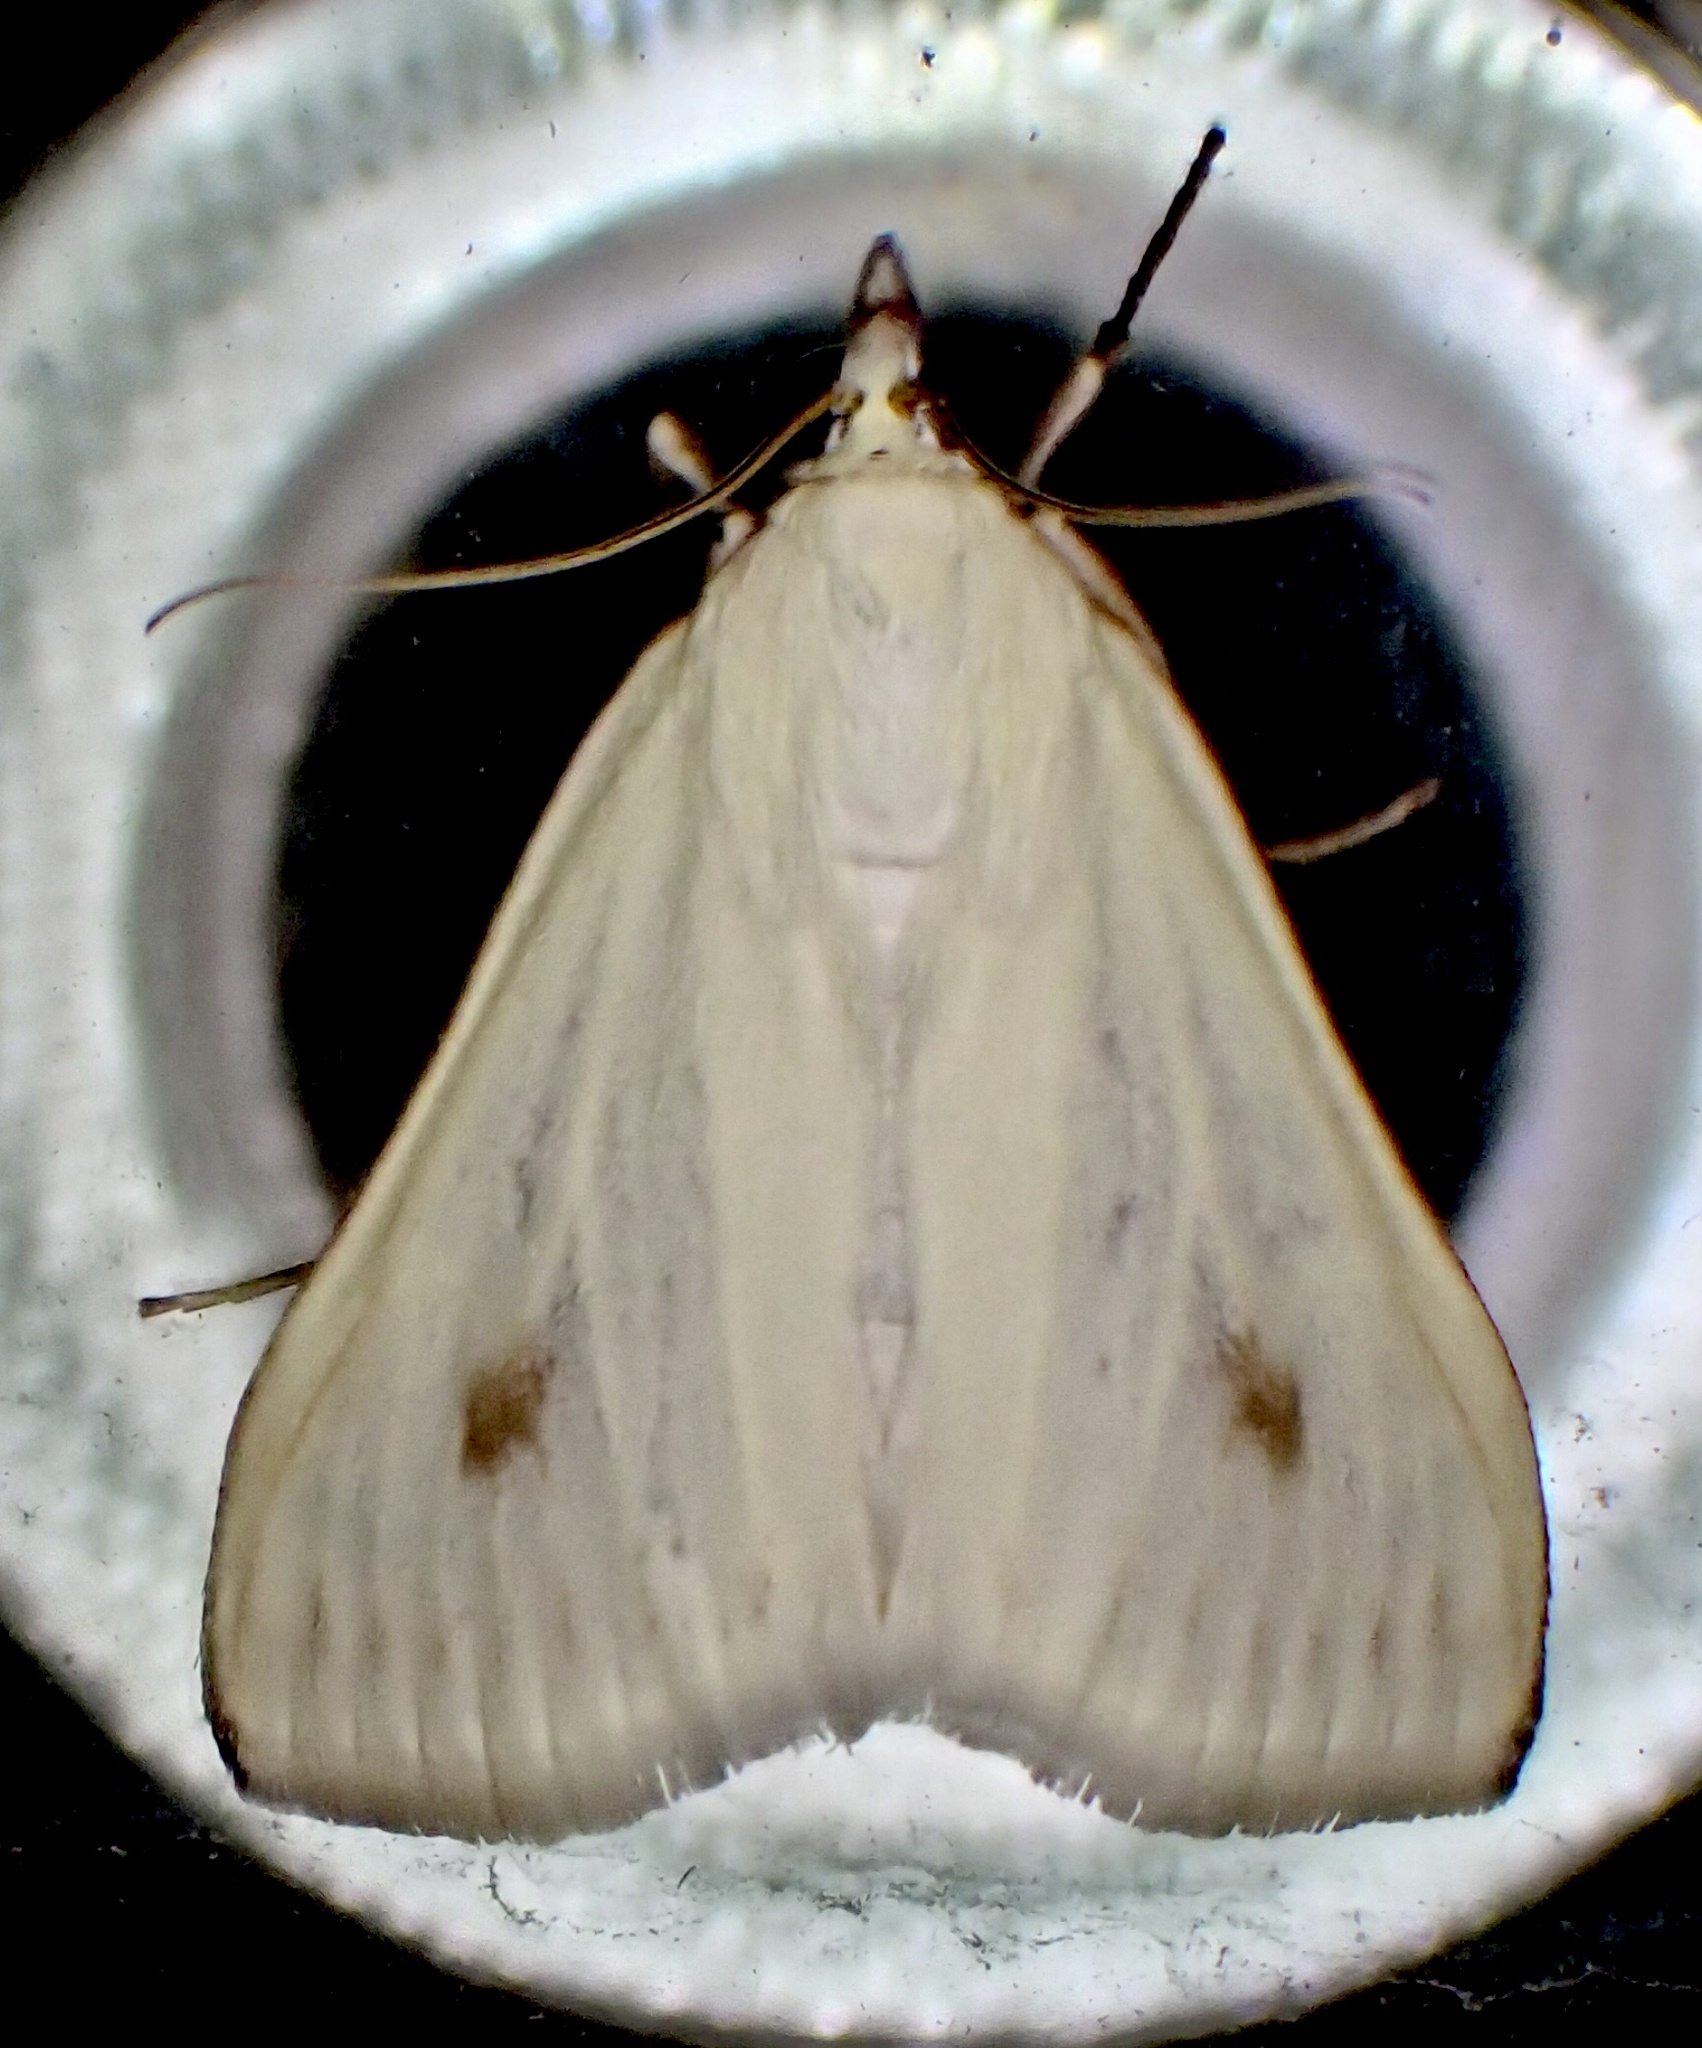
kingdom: Animalia
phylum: Arthropoda
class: Insecta
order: Lepidoptera
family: Crambidae
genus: Sitochroa
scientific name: Sitochroa palealis
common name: Greenish-yellow sitochroa moth
